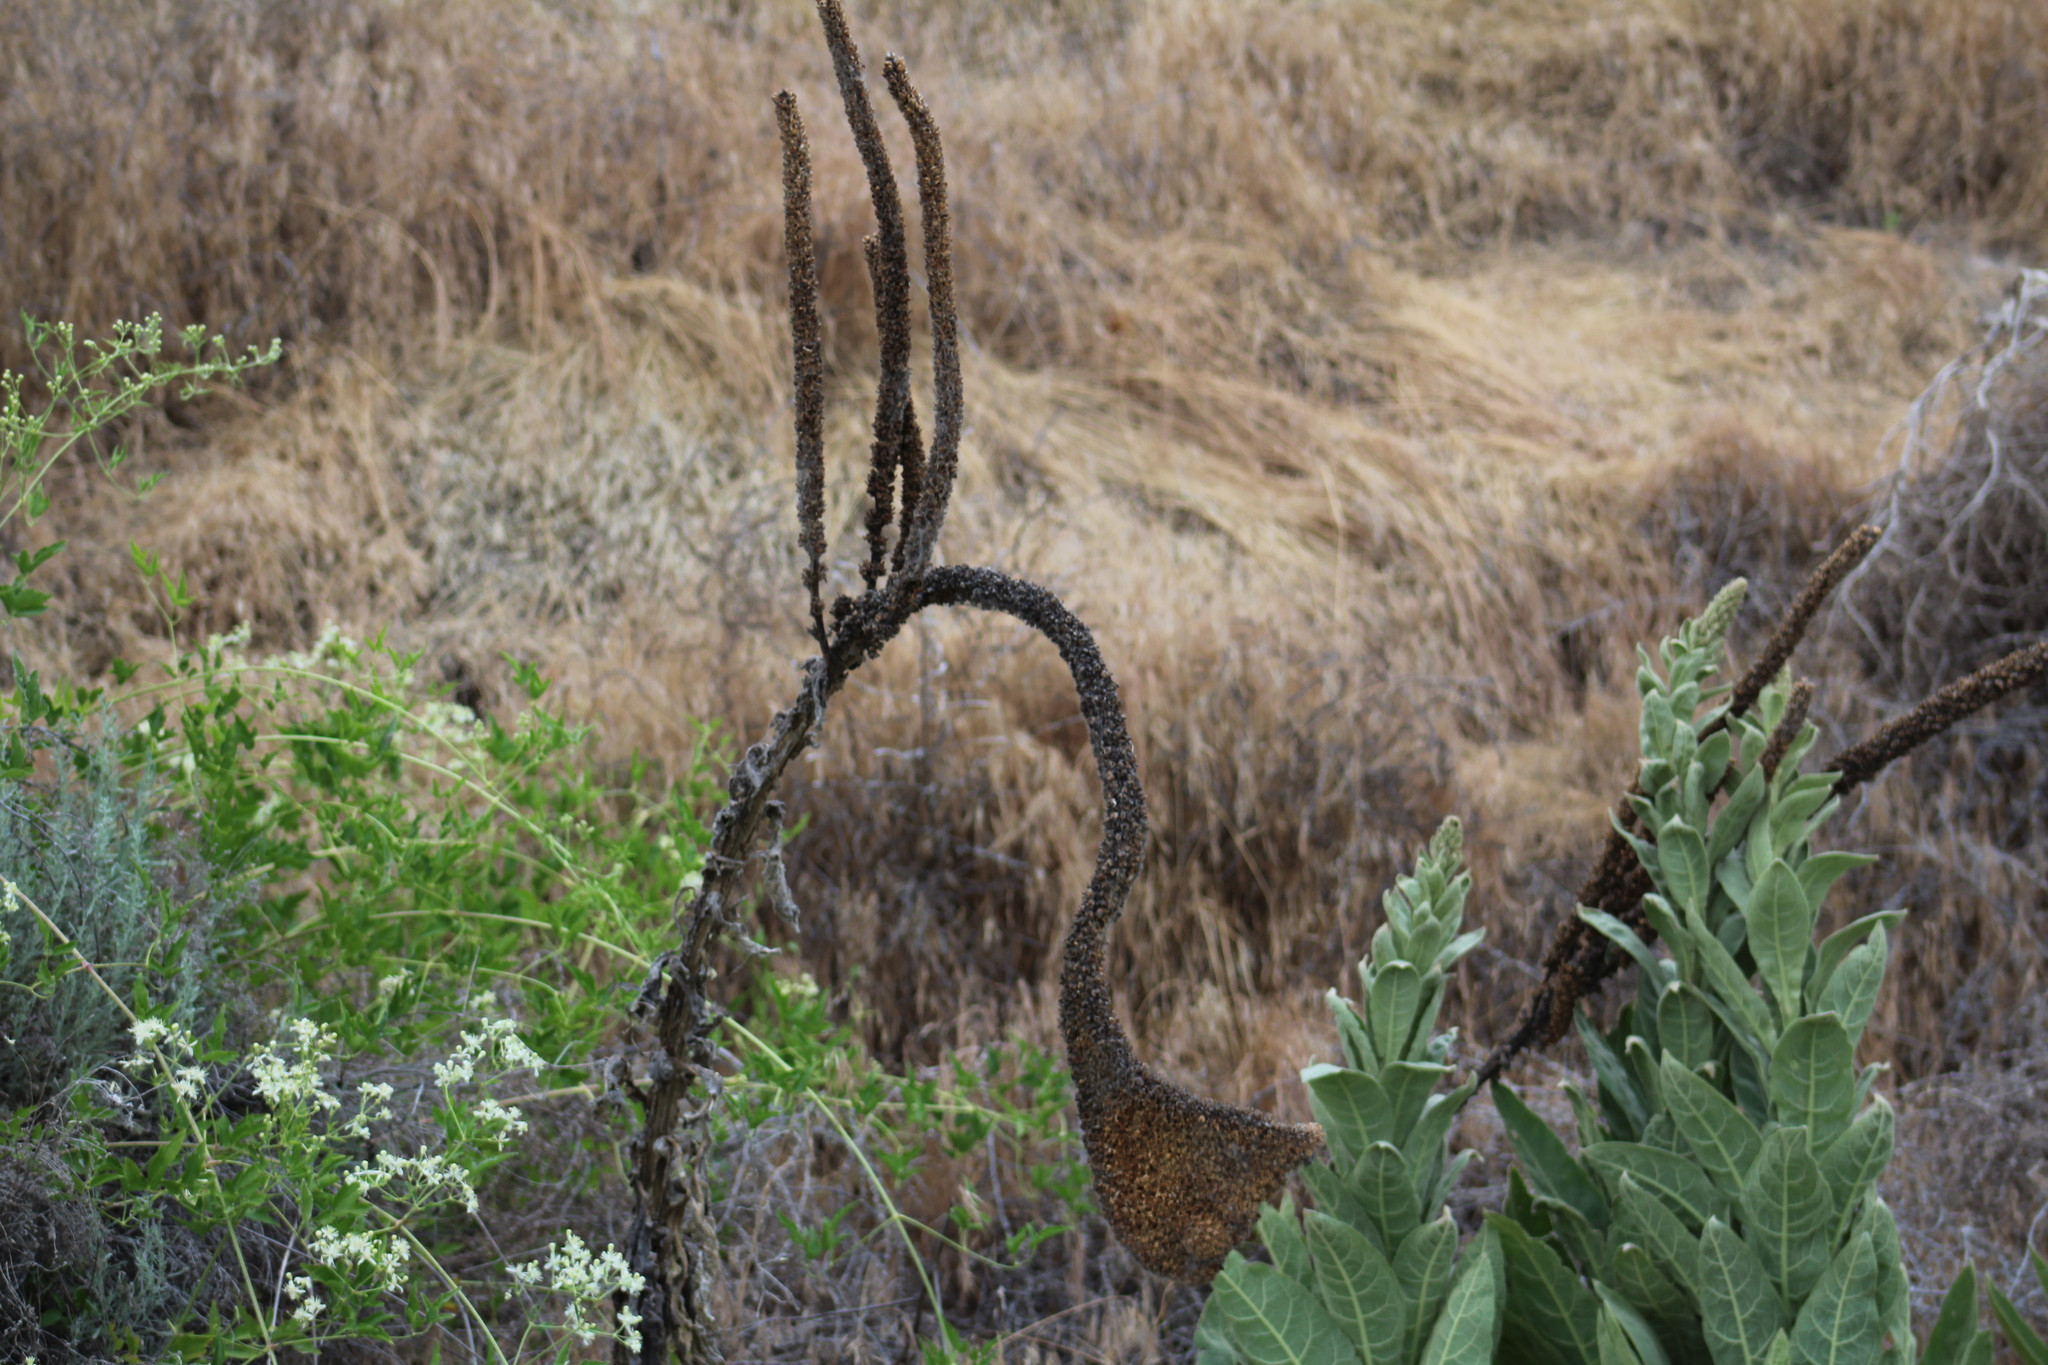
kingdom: Plantae
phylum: Tracheophyta
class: Magnoliopsida
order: Lamiales
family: Scrophulariaceae
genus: Verbascum
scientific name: Verbascum thapsus
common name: Common mullein
